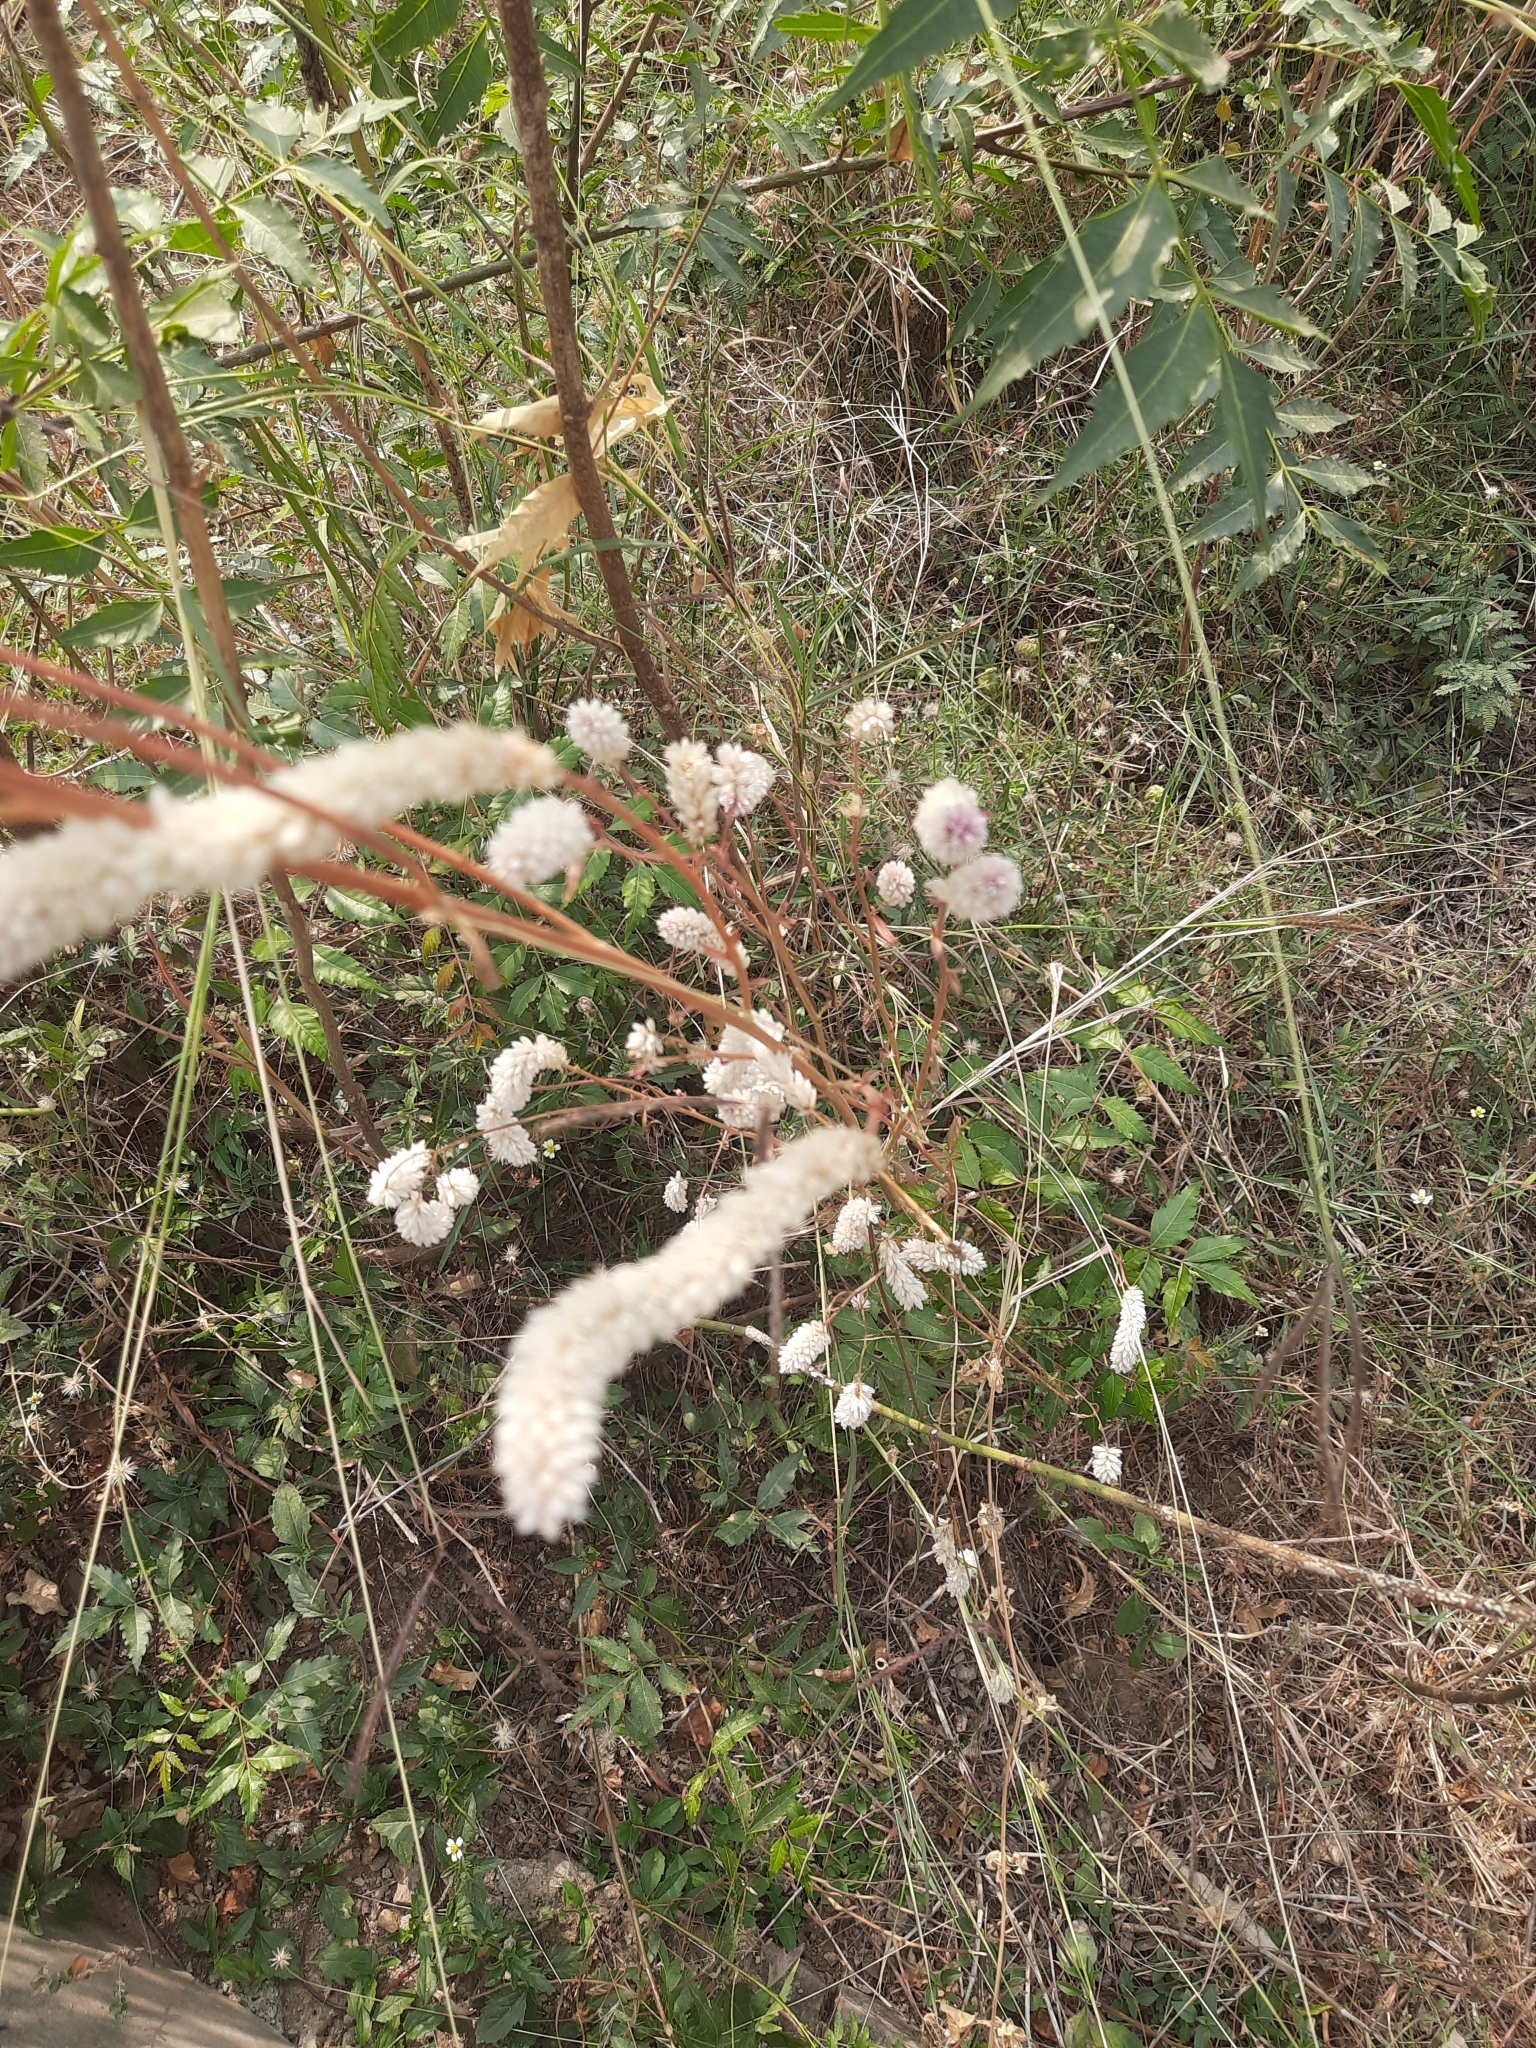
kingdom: Plantae
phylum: Tracheophyta
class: Magnoliopsida
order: Caryophyllales
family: Amaranthaceae
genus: Celosia
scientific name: Celosia argentea
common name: Feather cockscomb
